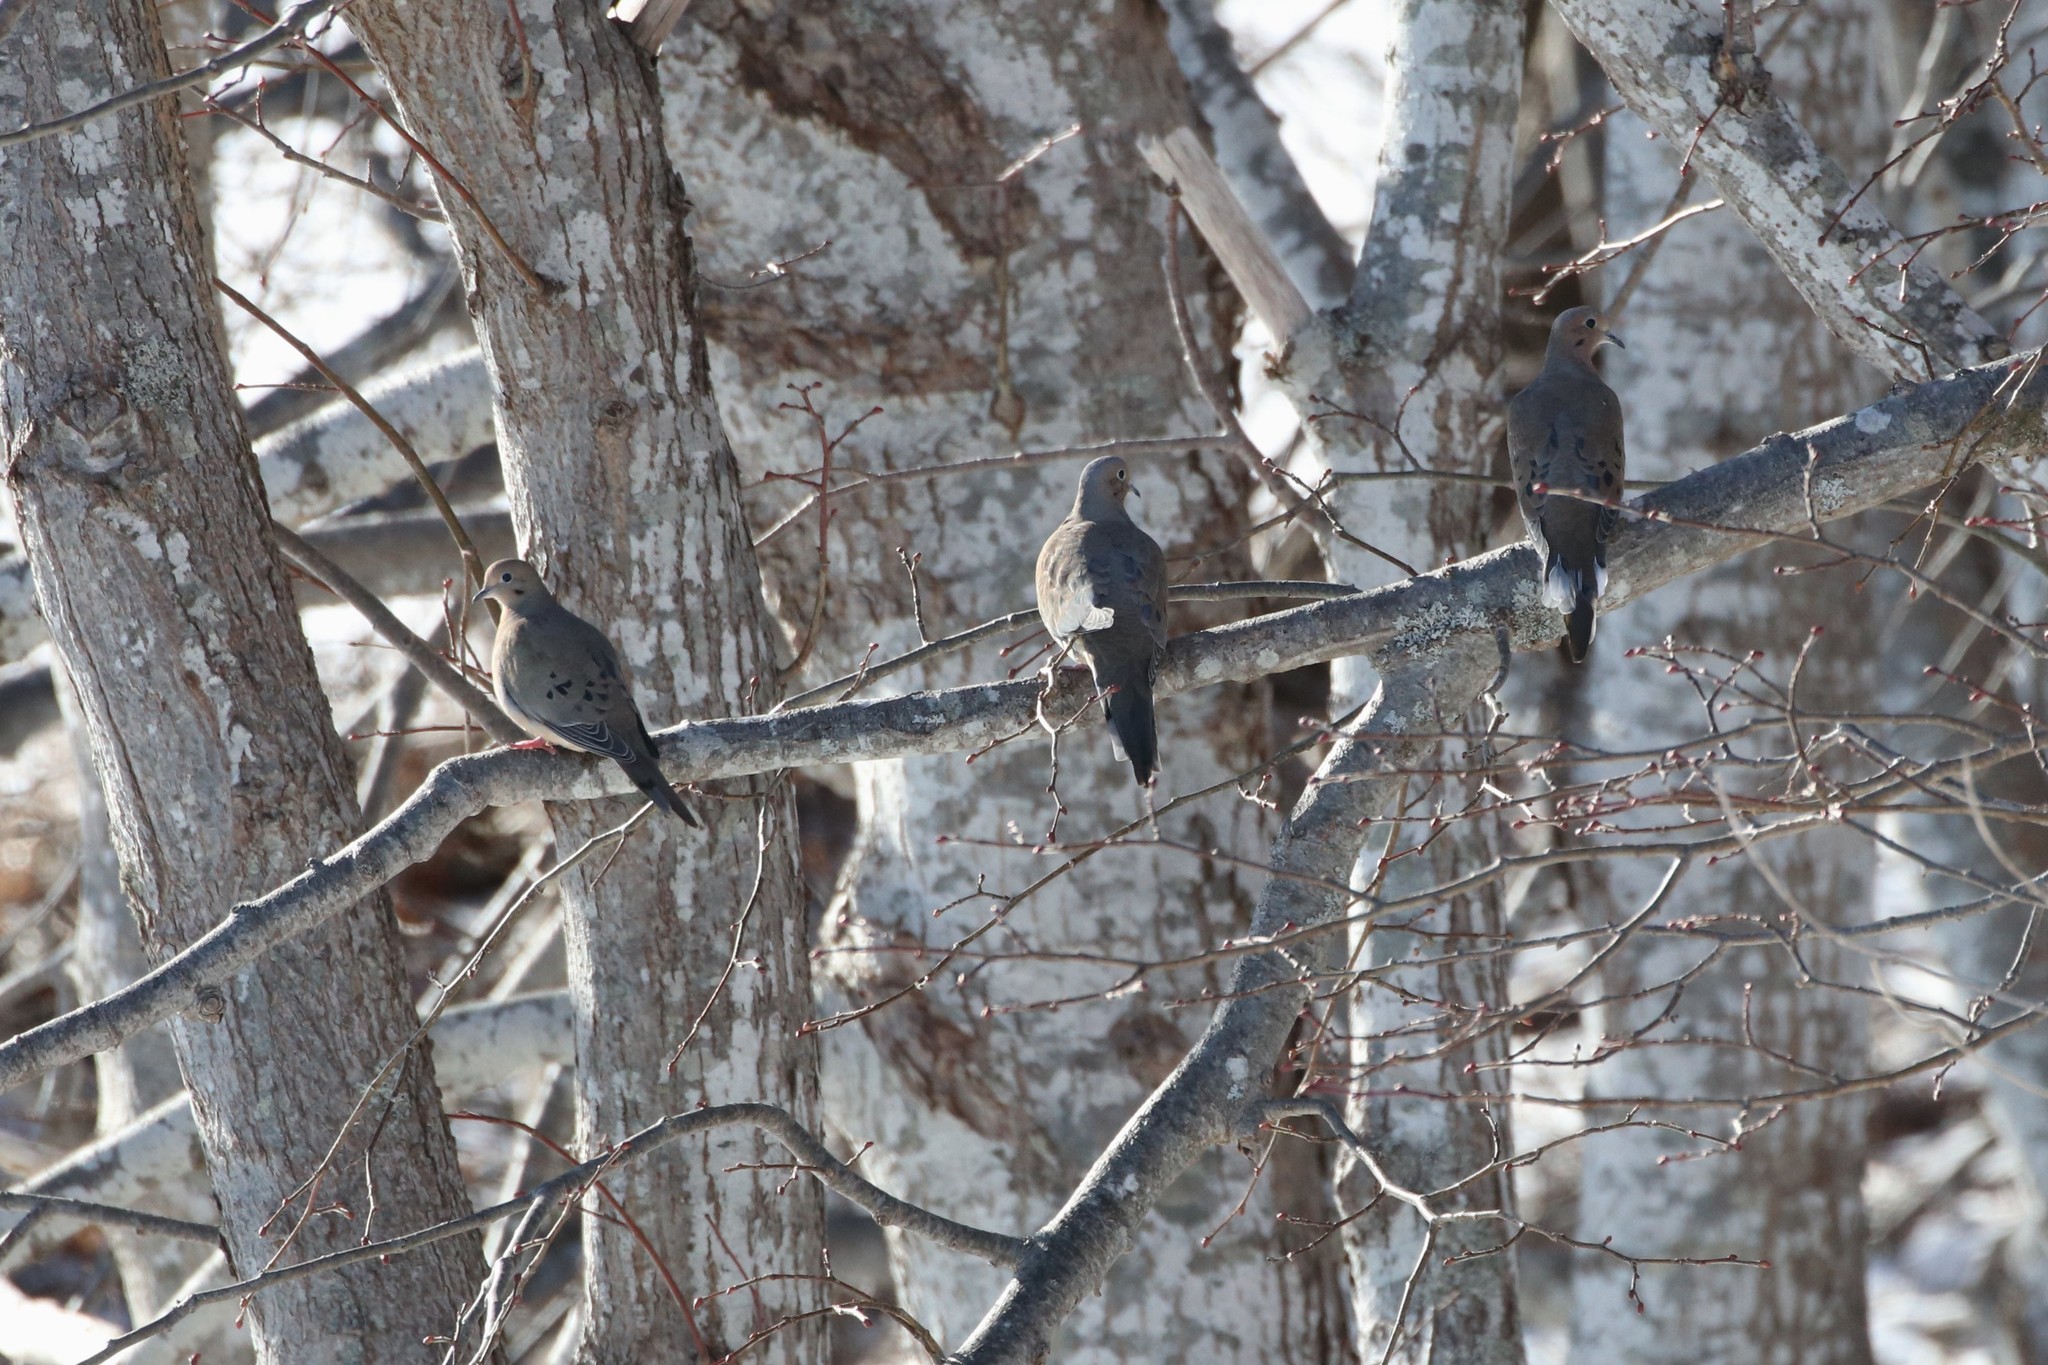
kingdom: Animalia
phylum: Chordata
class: Aves
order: Columbiformes
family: Columbidae
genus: Zenaida
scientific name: Zenaida macroura
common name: Mourning dove
